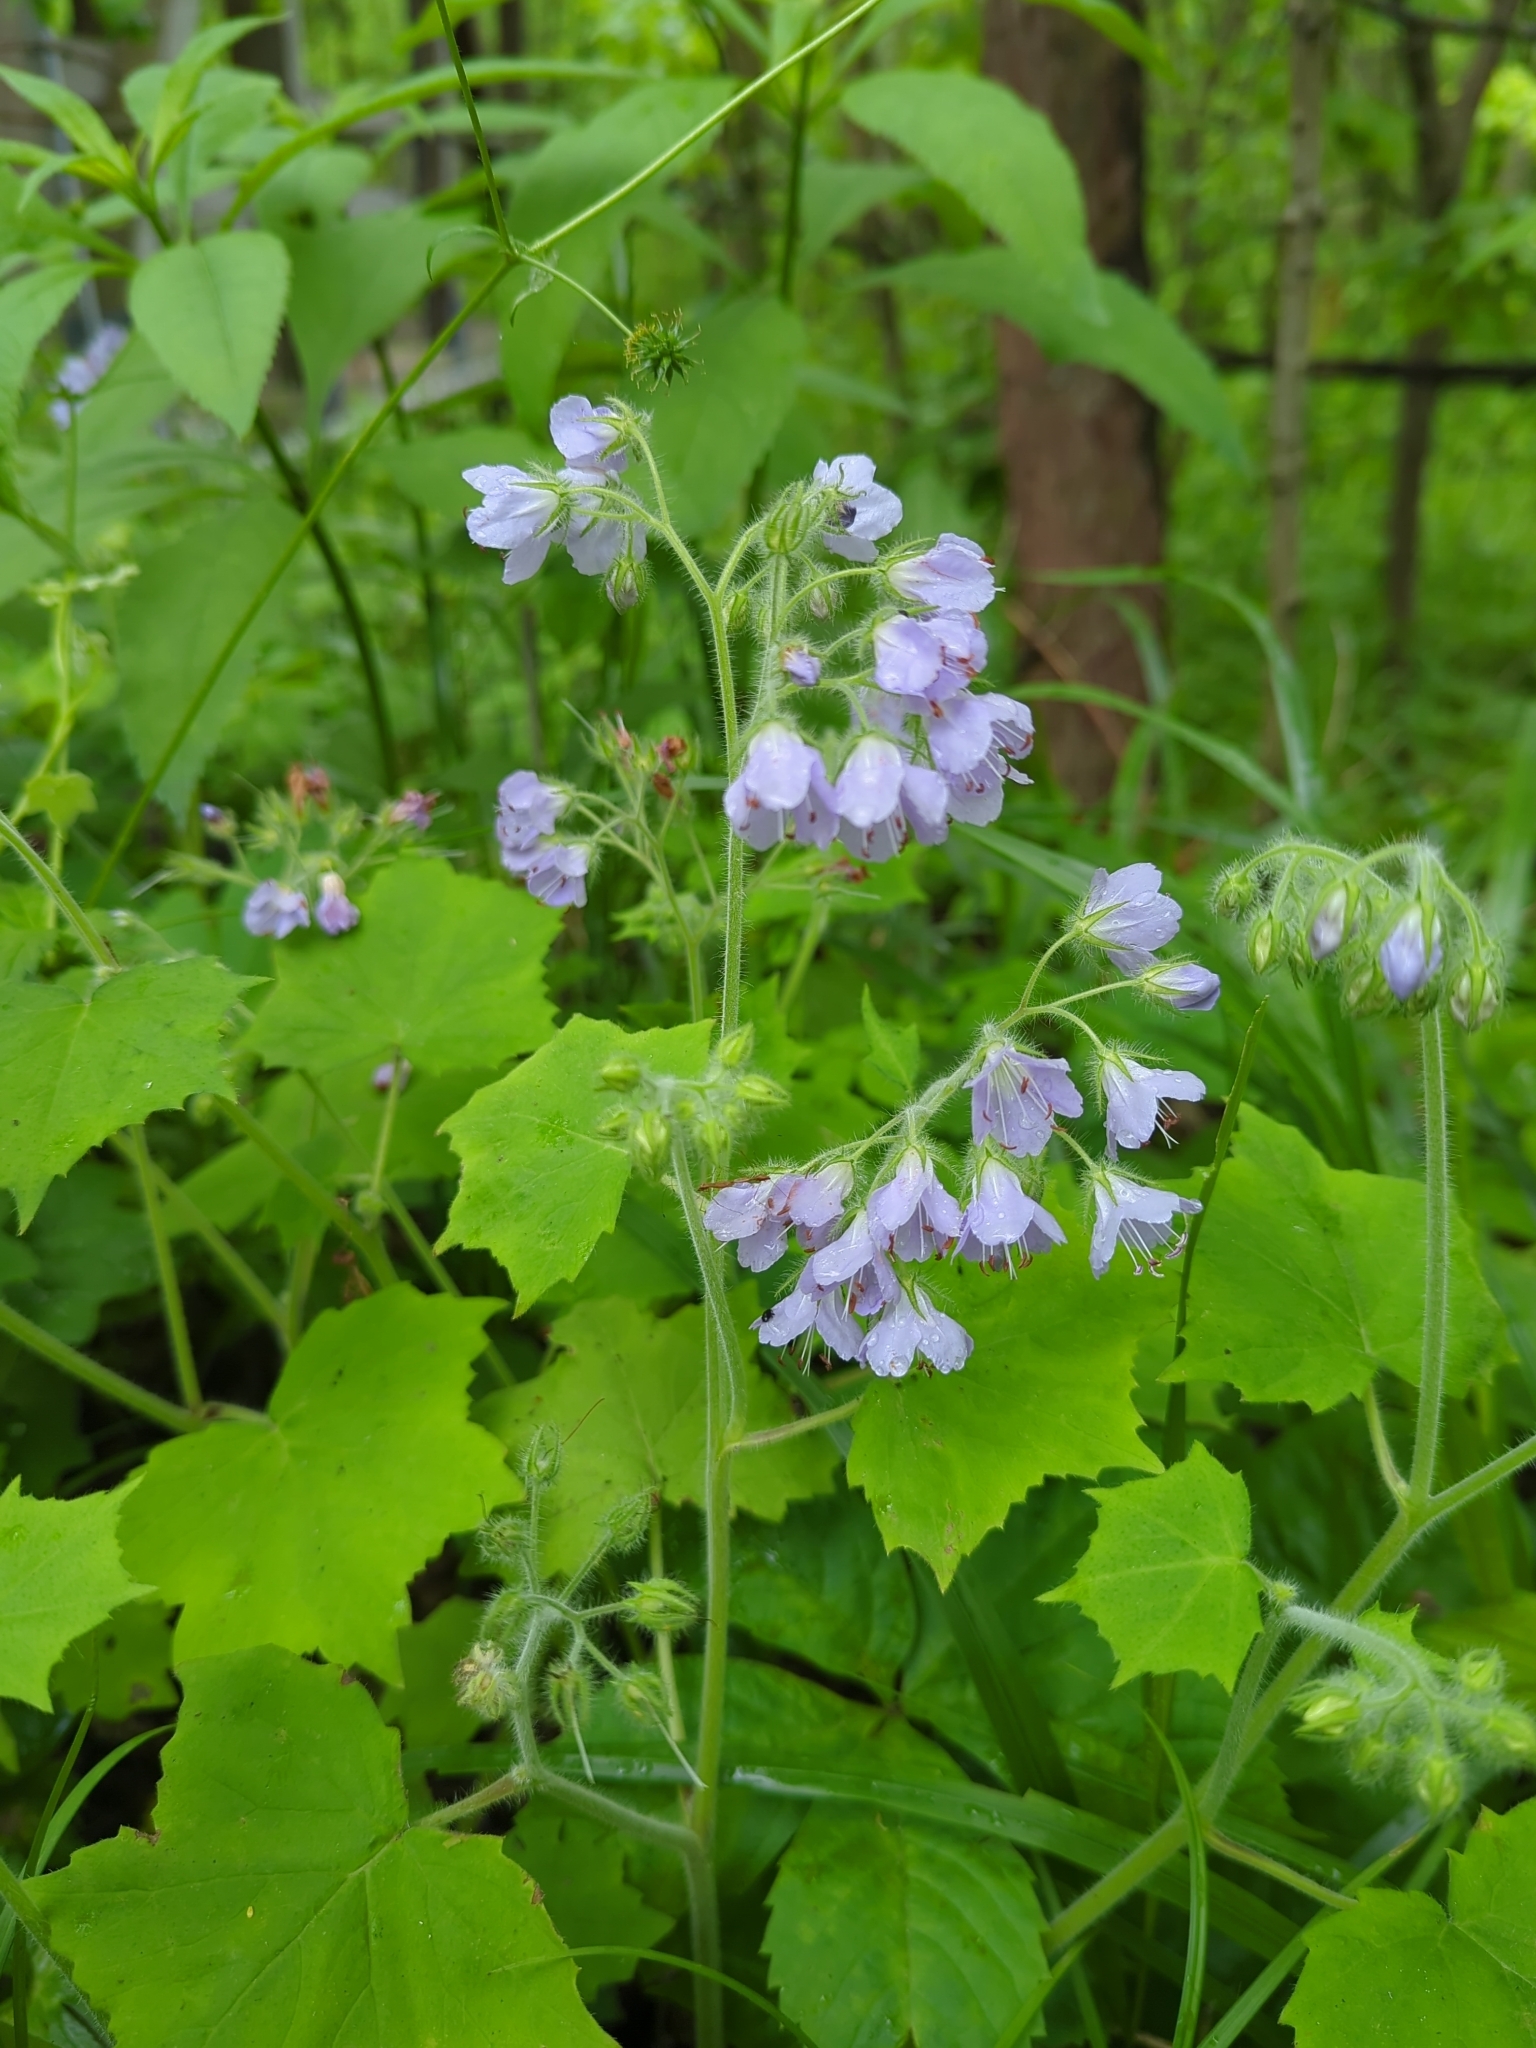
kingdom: Plantae
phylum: Tracheophyta
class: Magnoliopsida
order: Boraginales
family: Hydrophyllaceae
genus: Hydrophyllum
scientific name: Hydrophyllum appendiculatum
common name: Appendaged waterleaf
